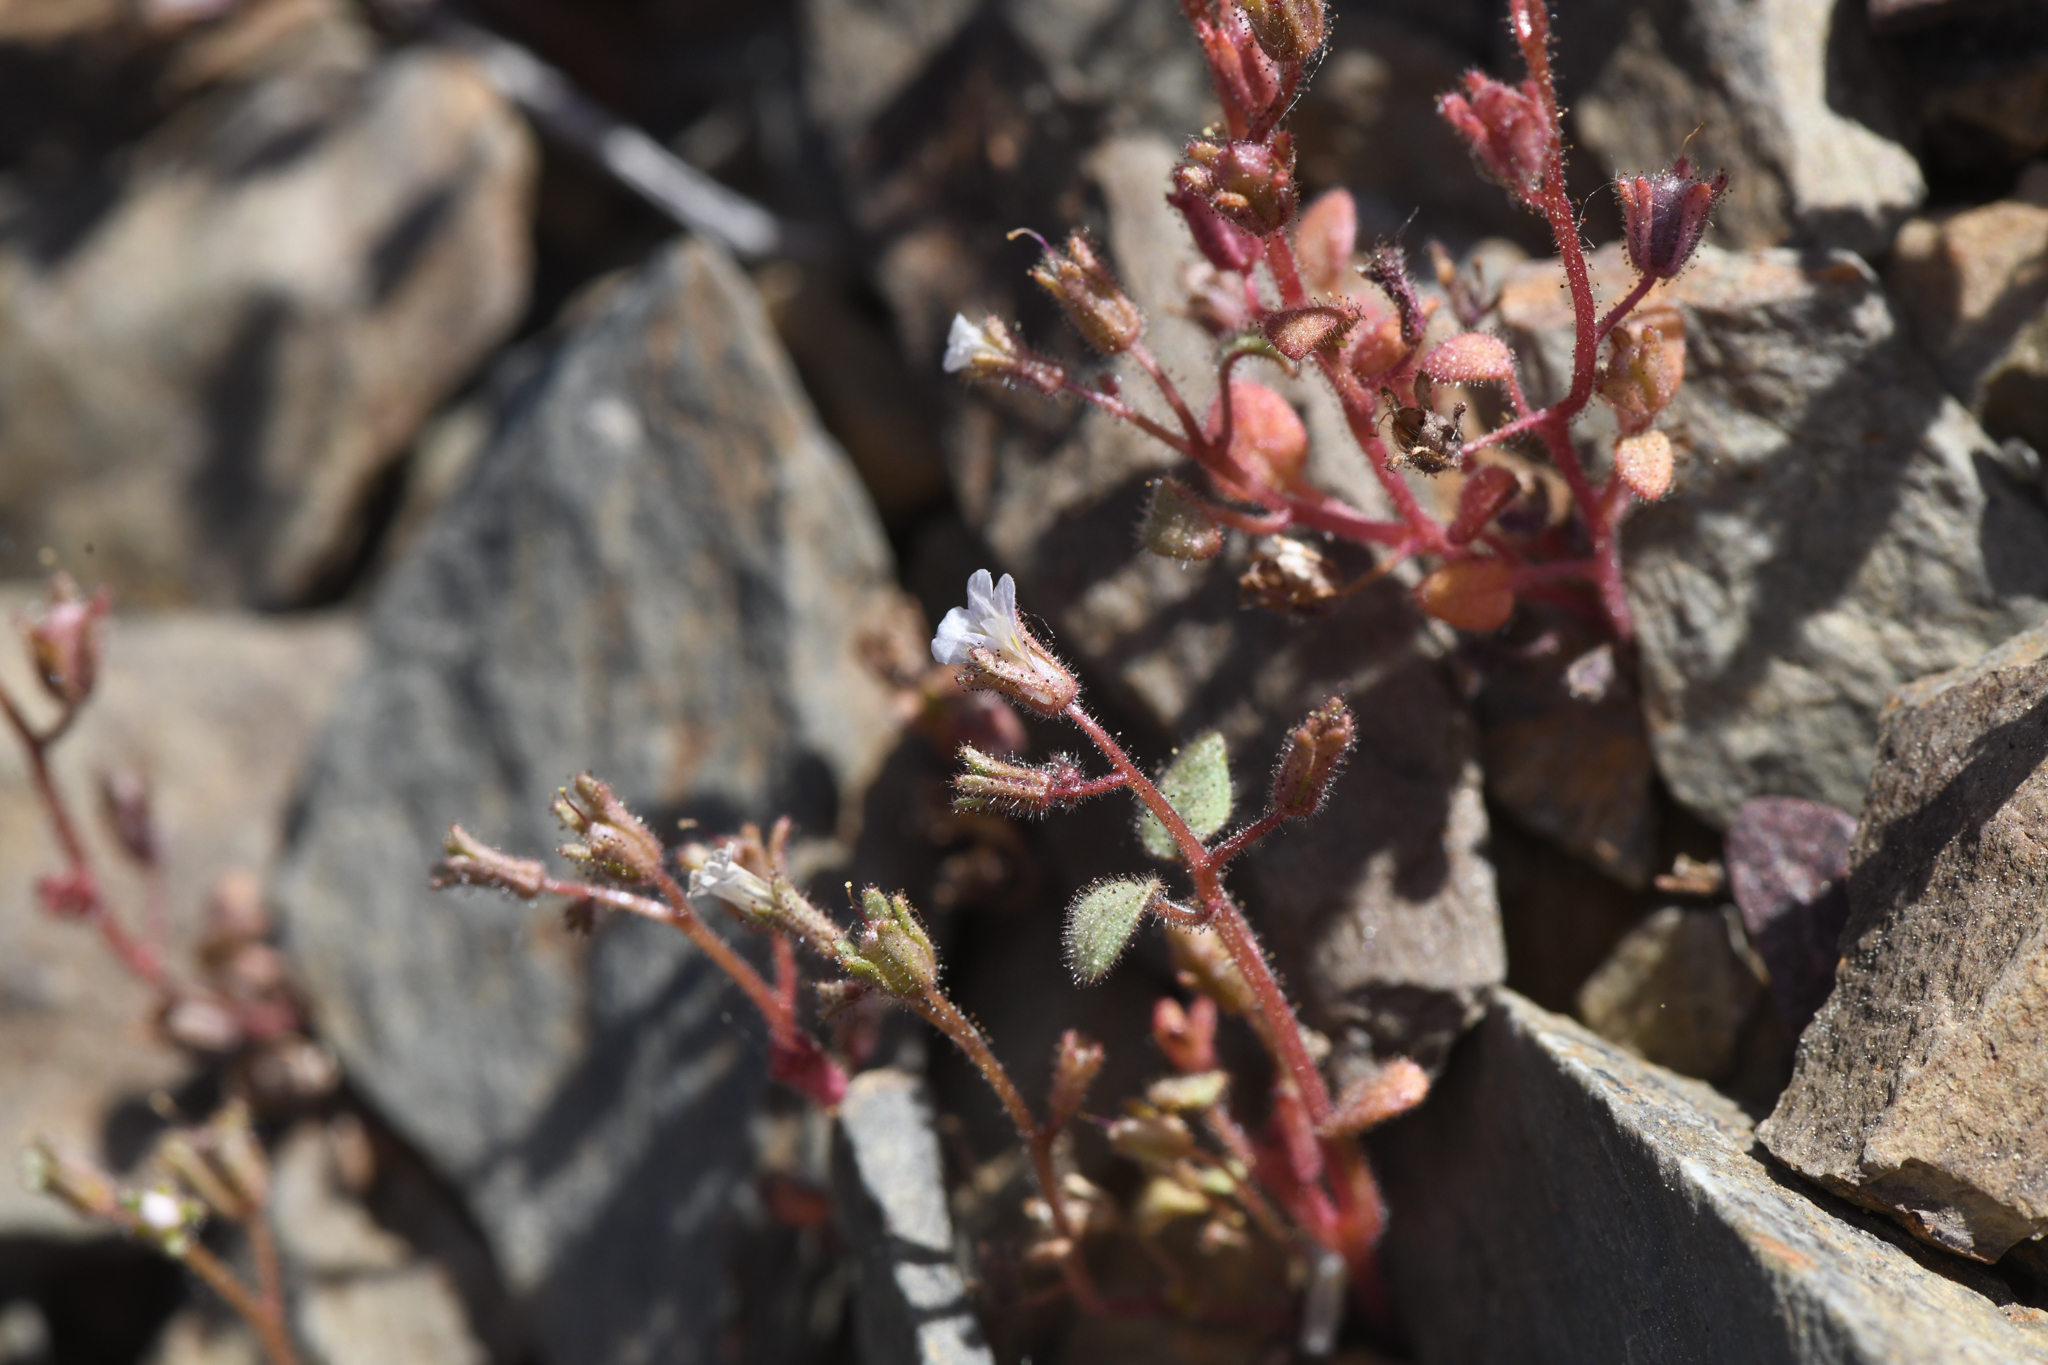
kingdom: Plantae
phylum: Tracheophyta
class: Magnoliopsida
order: Boraginales
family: Hydrophyllaceae
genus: Phacelia
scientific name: Phacelia barnebyana
